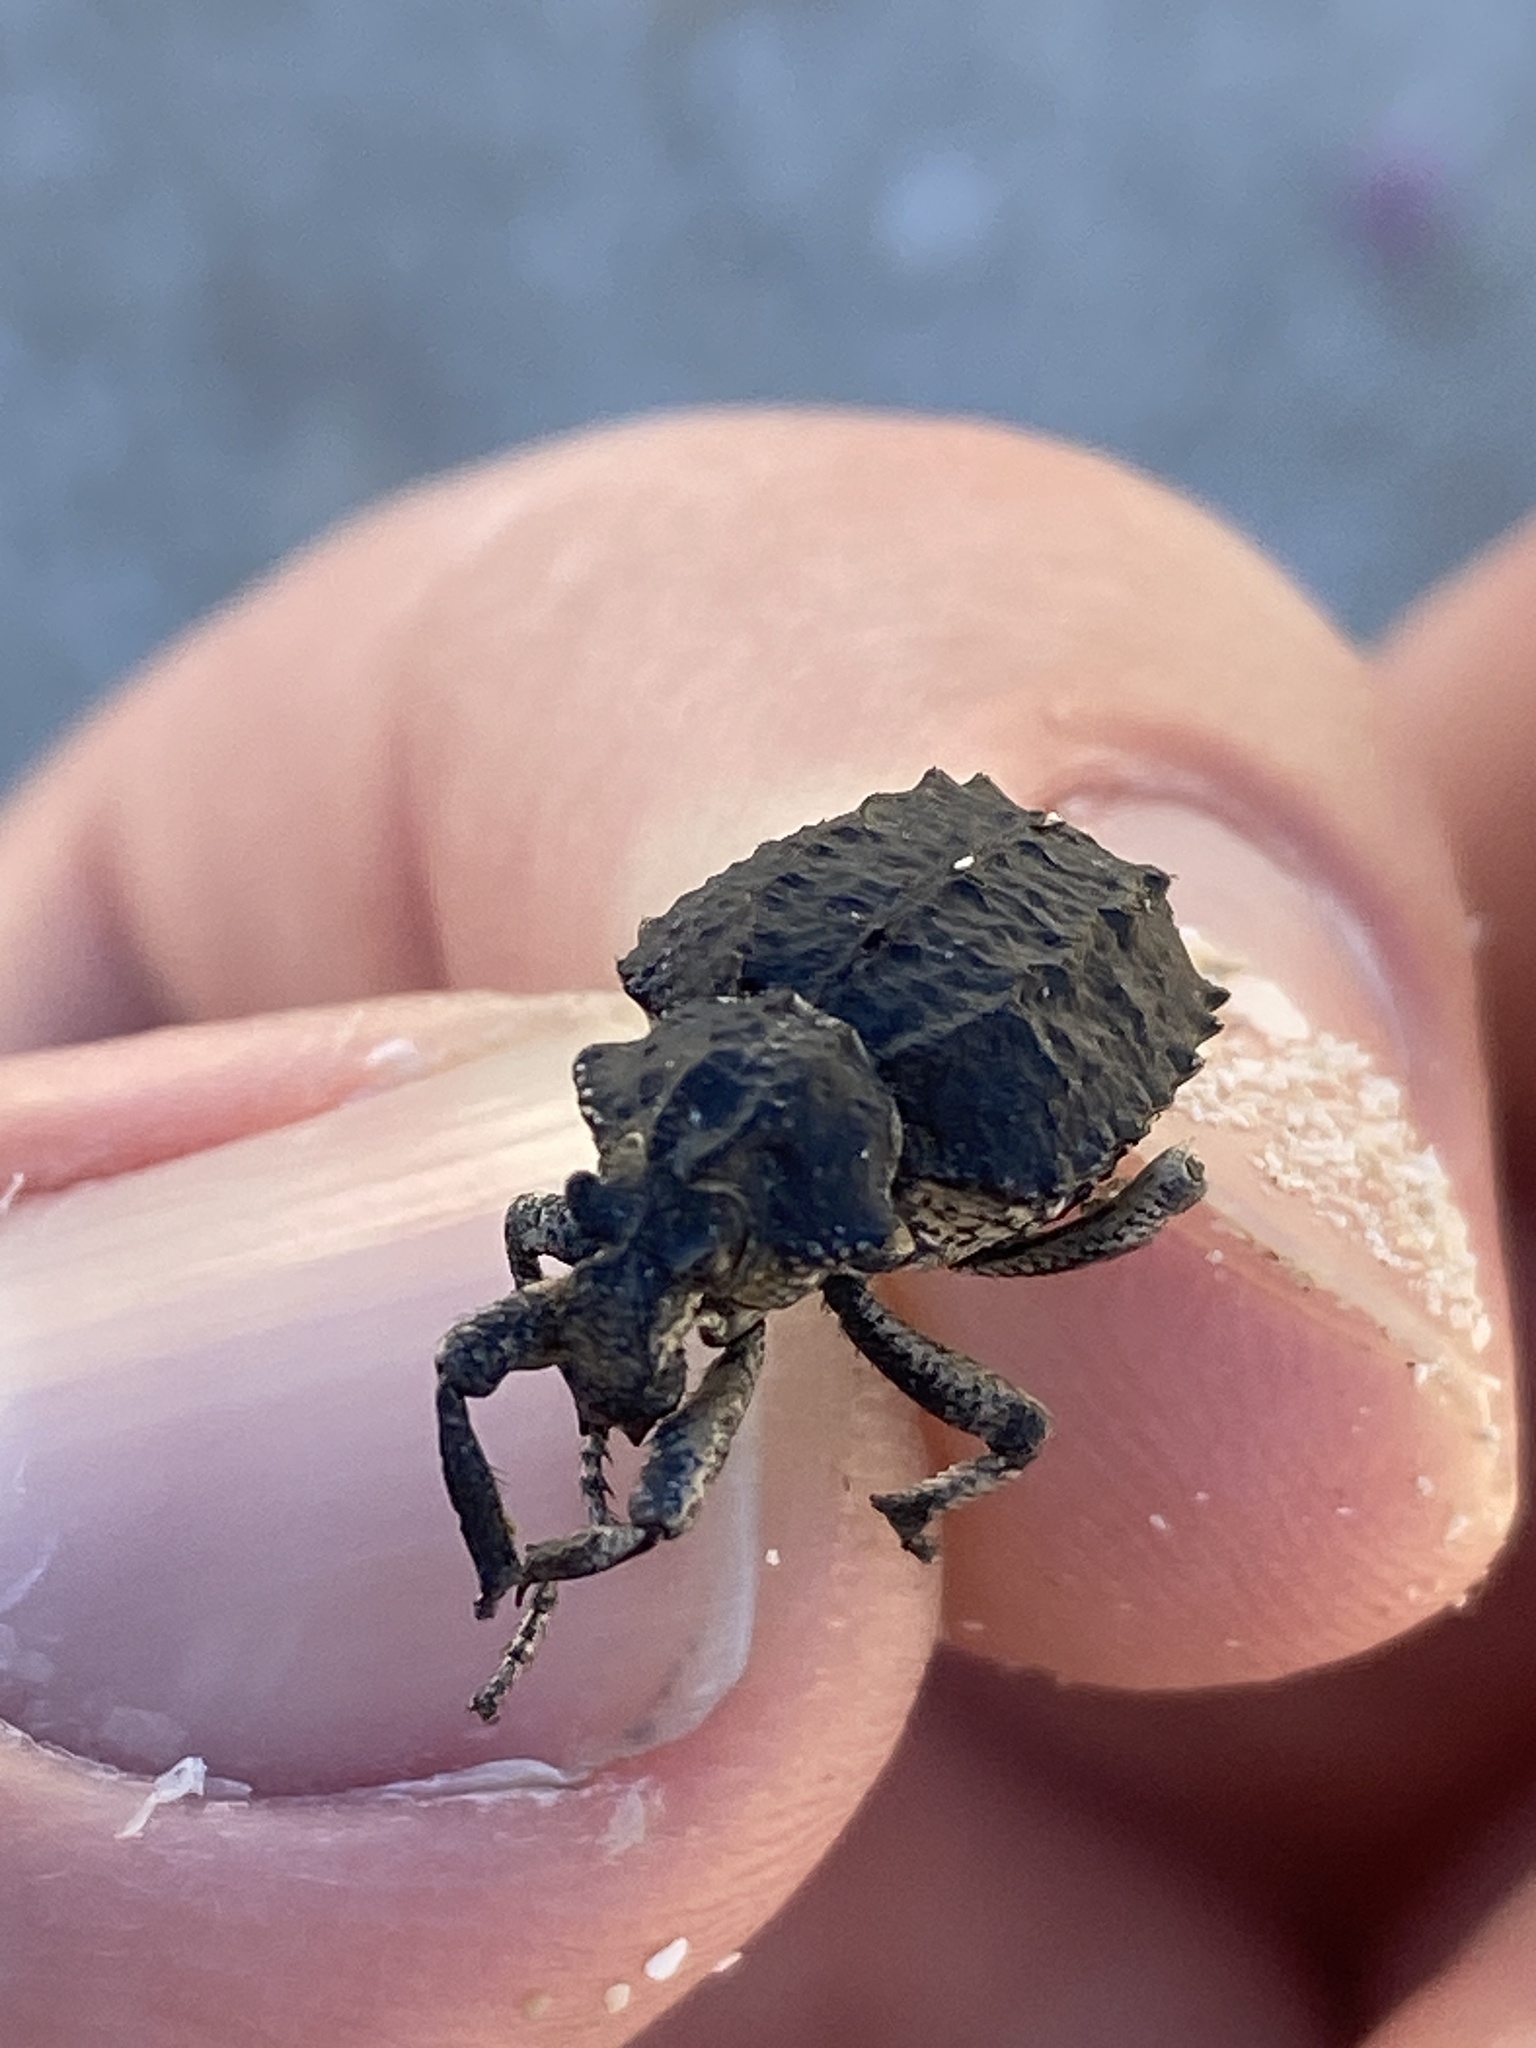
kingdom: Animalia
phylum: Arthropoda
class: Insecta
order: Coleoptera
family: Brachyceridae
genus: Brachycerus
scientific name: Brachycerus plicatus
